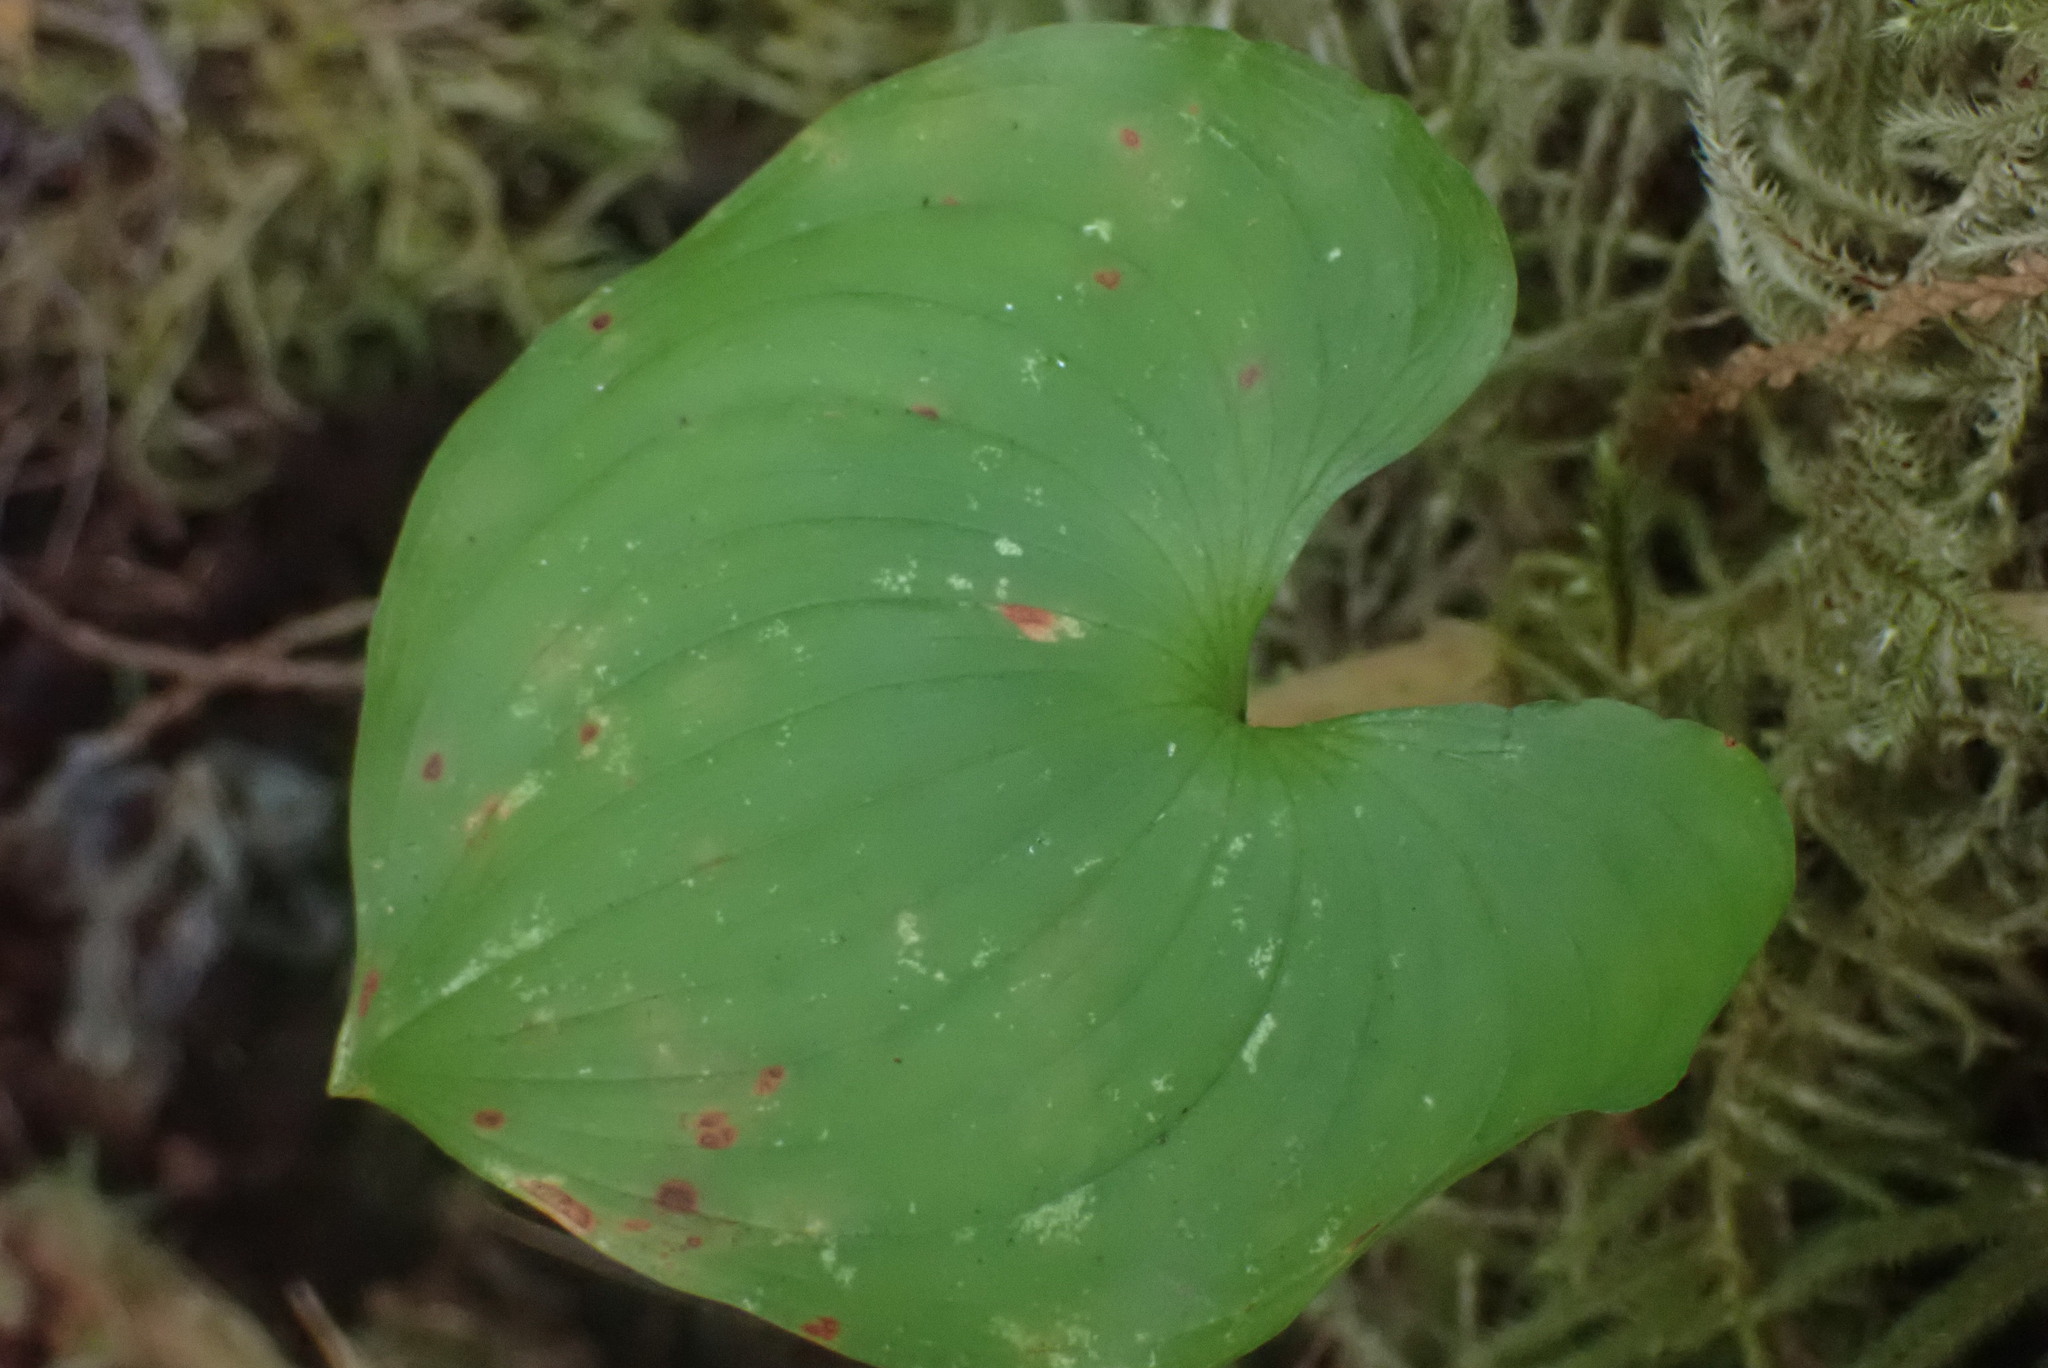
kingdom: Plantae
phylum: Tracheophyta
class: Liliopsida
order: Asparagales
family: Asparagaceae
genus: Maianthemum
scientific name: Maianthemum dilatatum
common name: False lily-of-the-valley
